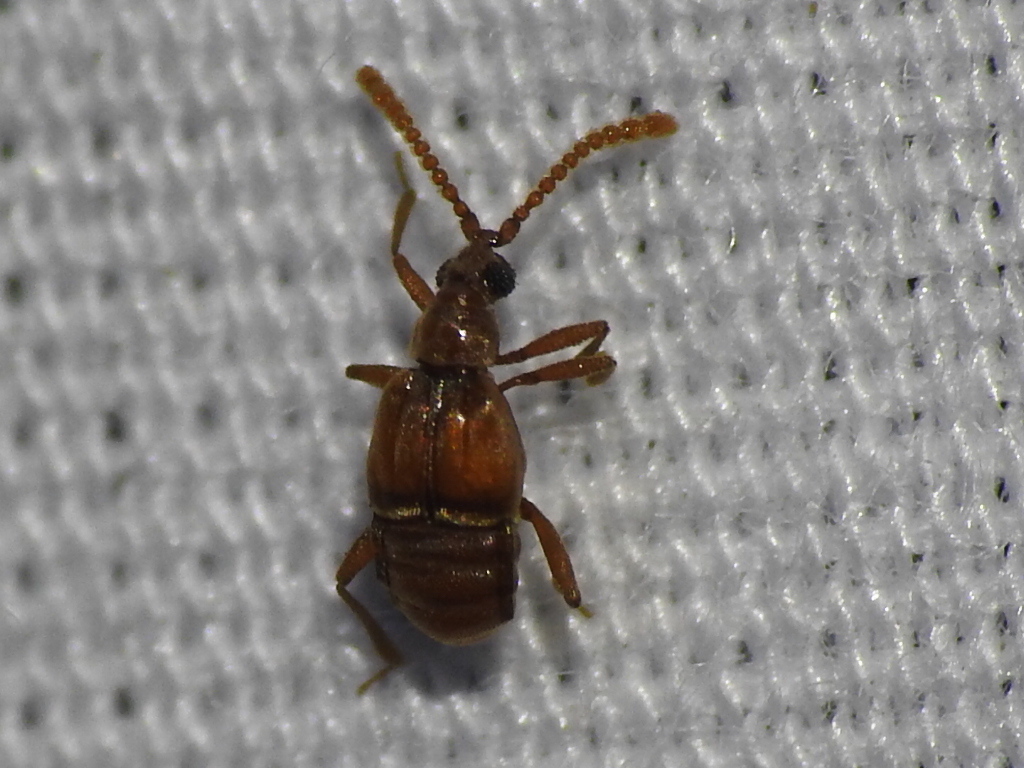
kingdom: Animalia
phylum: Arthropoda
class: Insecta
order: Coleoptera
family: Staphylinidae
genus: Atinus
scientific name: Atinus monilicornis
